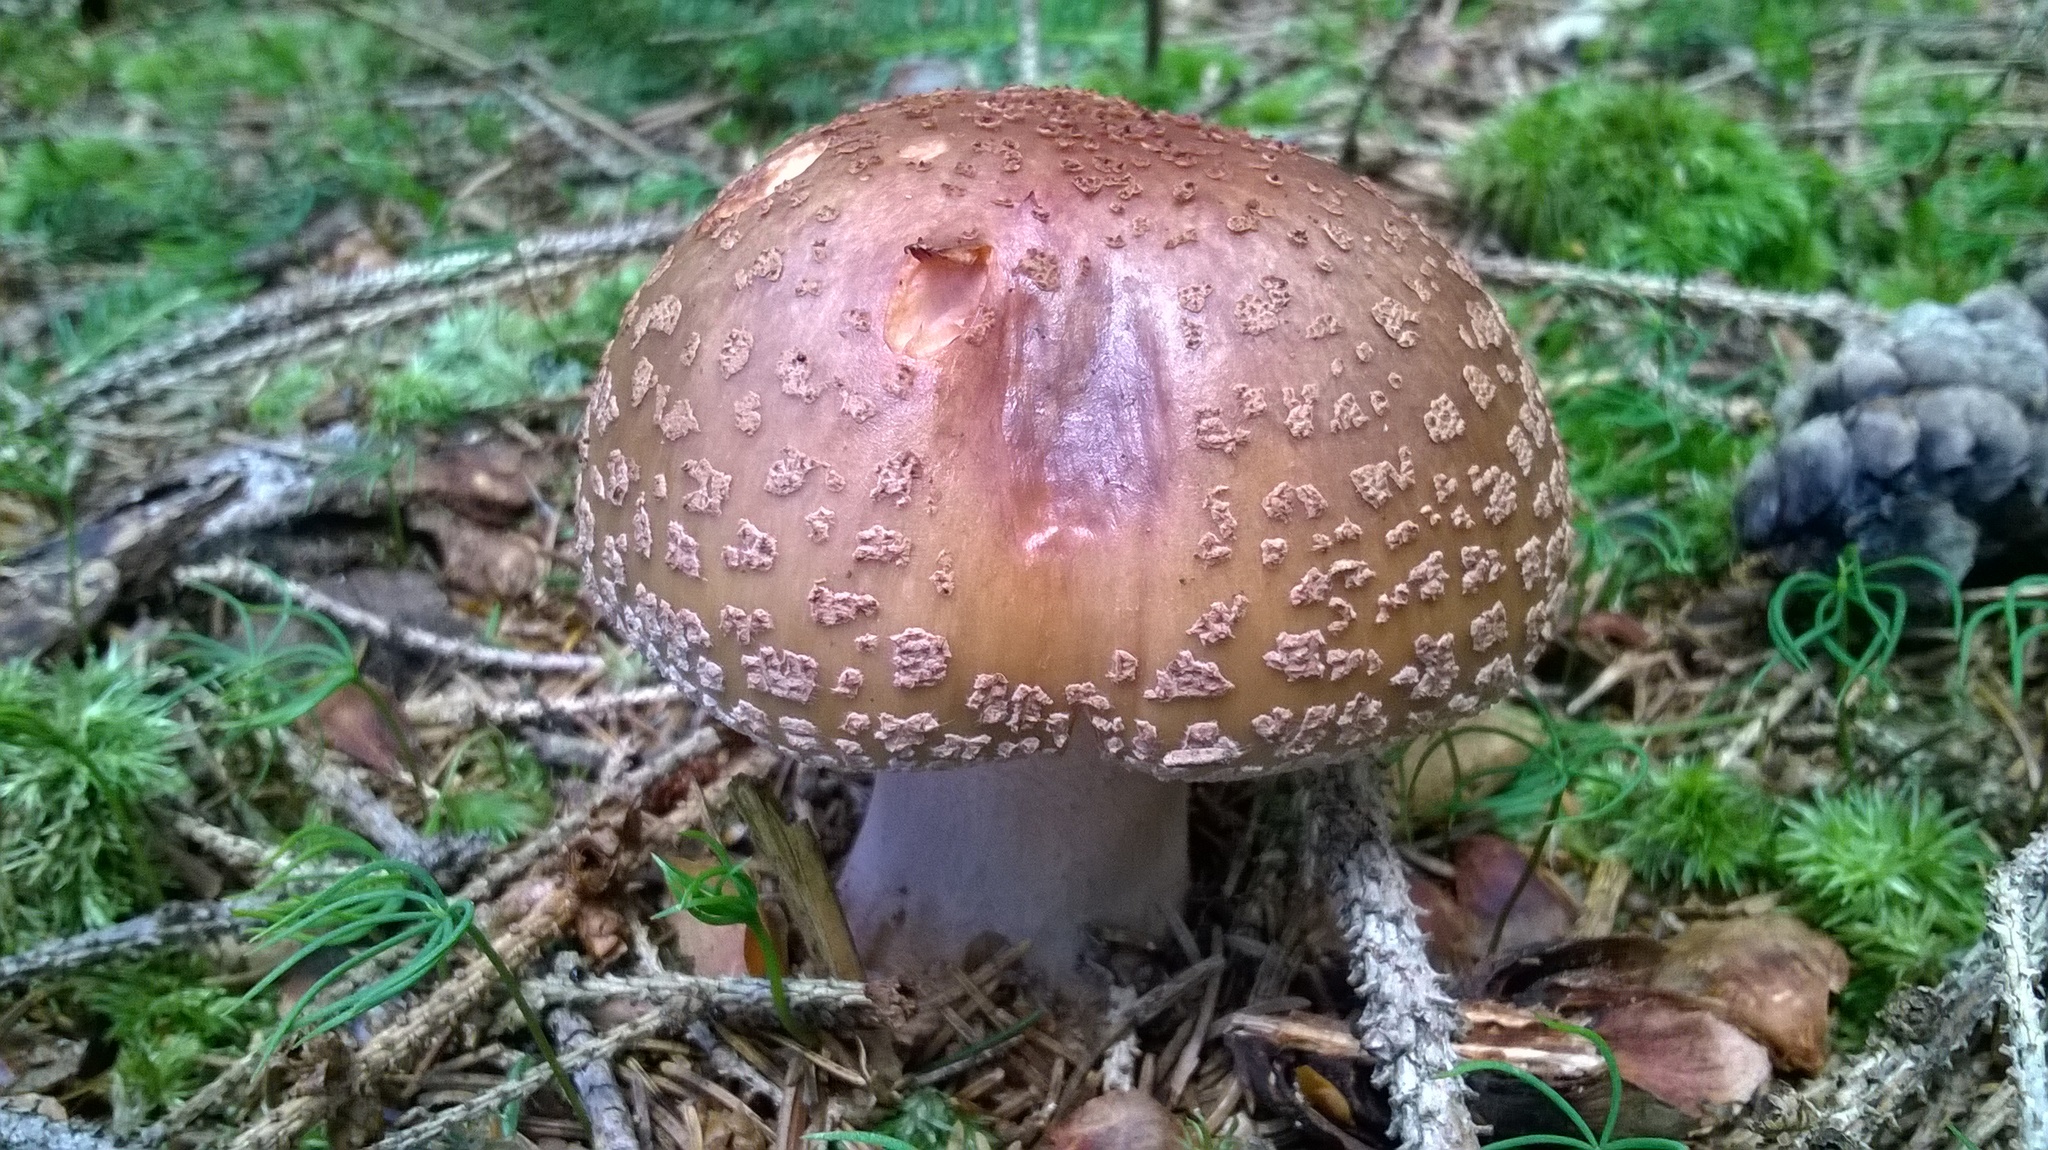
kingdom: Fungi
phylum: Basidiomycota
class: Agaricomycetes
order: Agaricales
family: Amanitaceae
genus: Amanita
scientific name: Amanita rubescens
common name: Blusher
